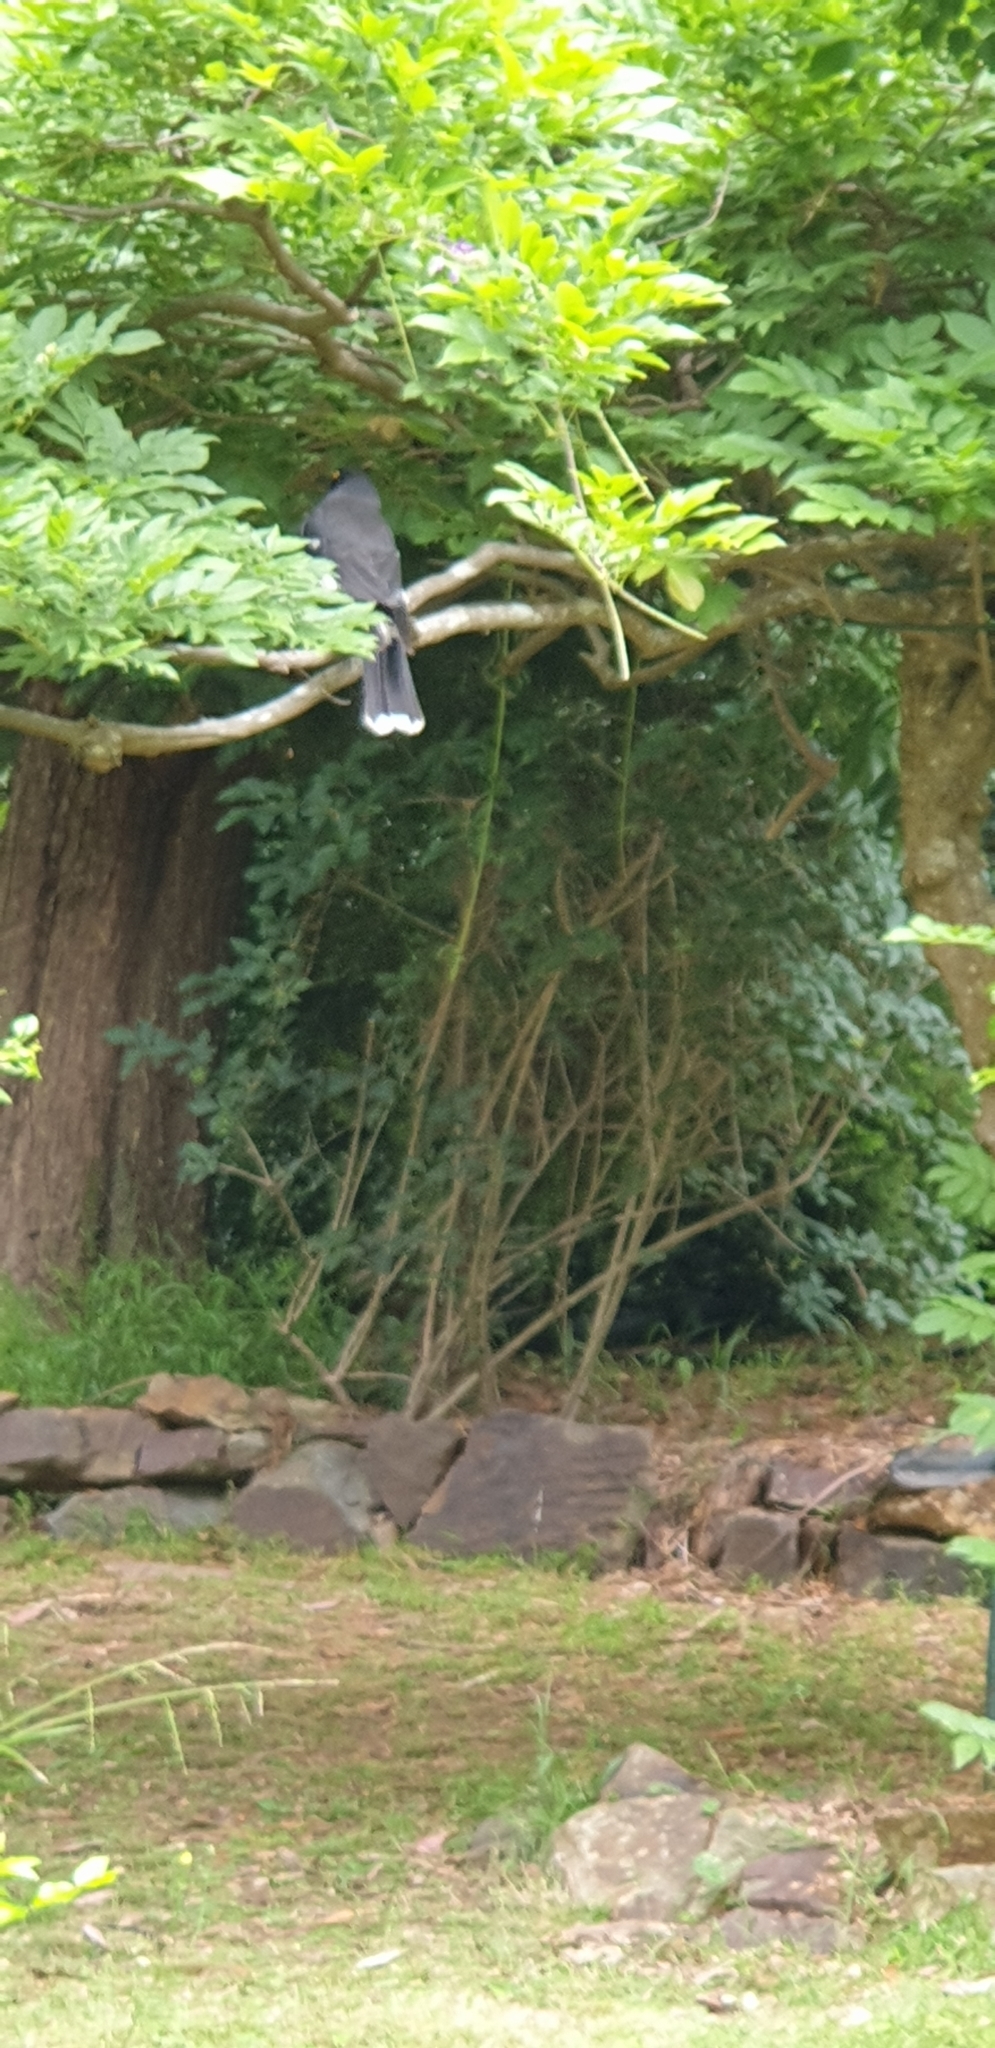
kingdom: Animalia
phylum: Chordata
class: Aves
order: Passeriformes
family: Cracticidae
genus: Strepera
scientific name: Strepera graculina
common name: Pied currawong
